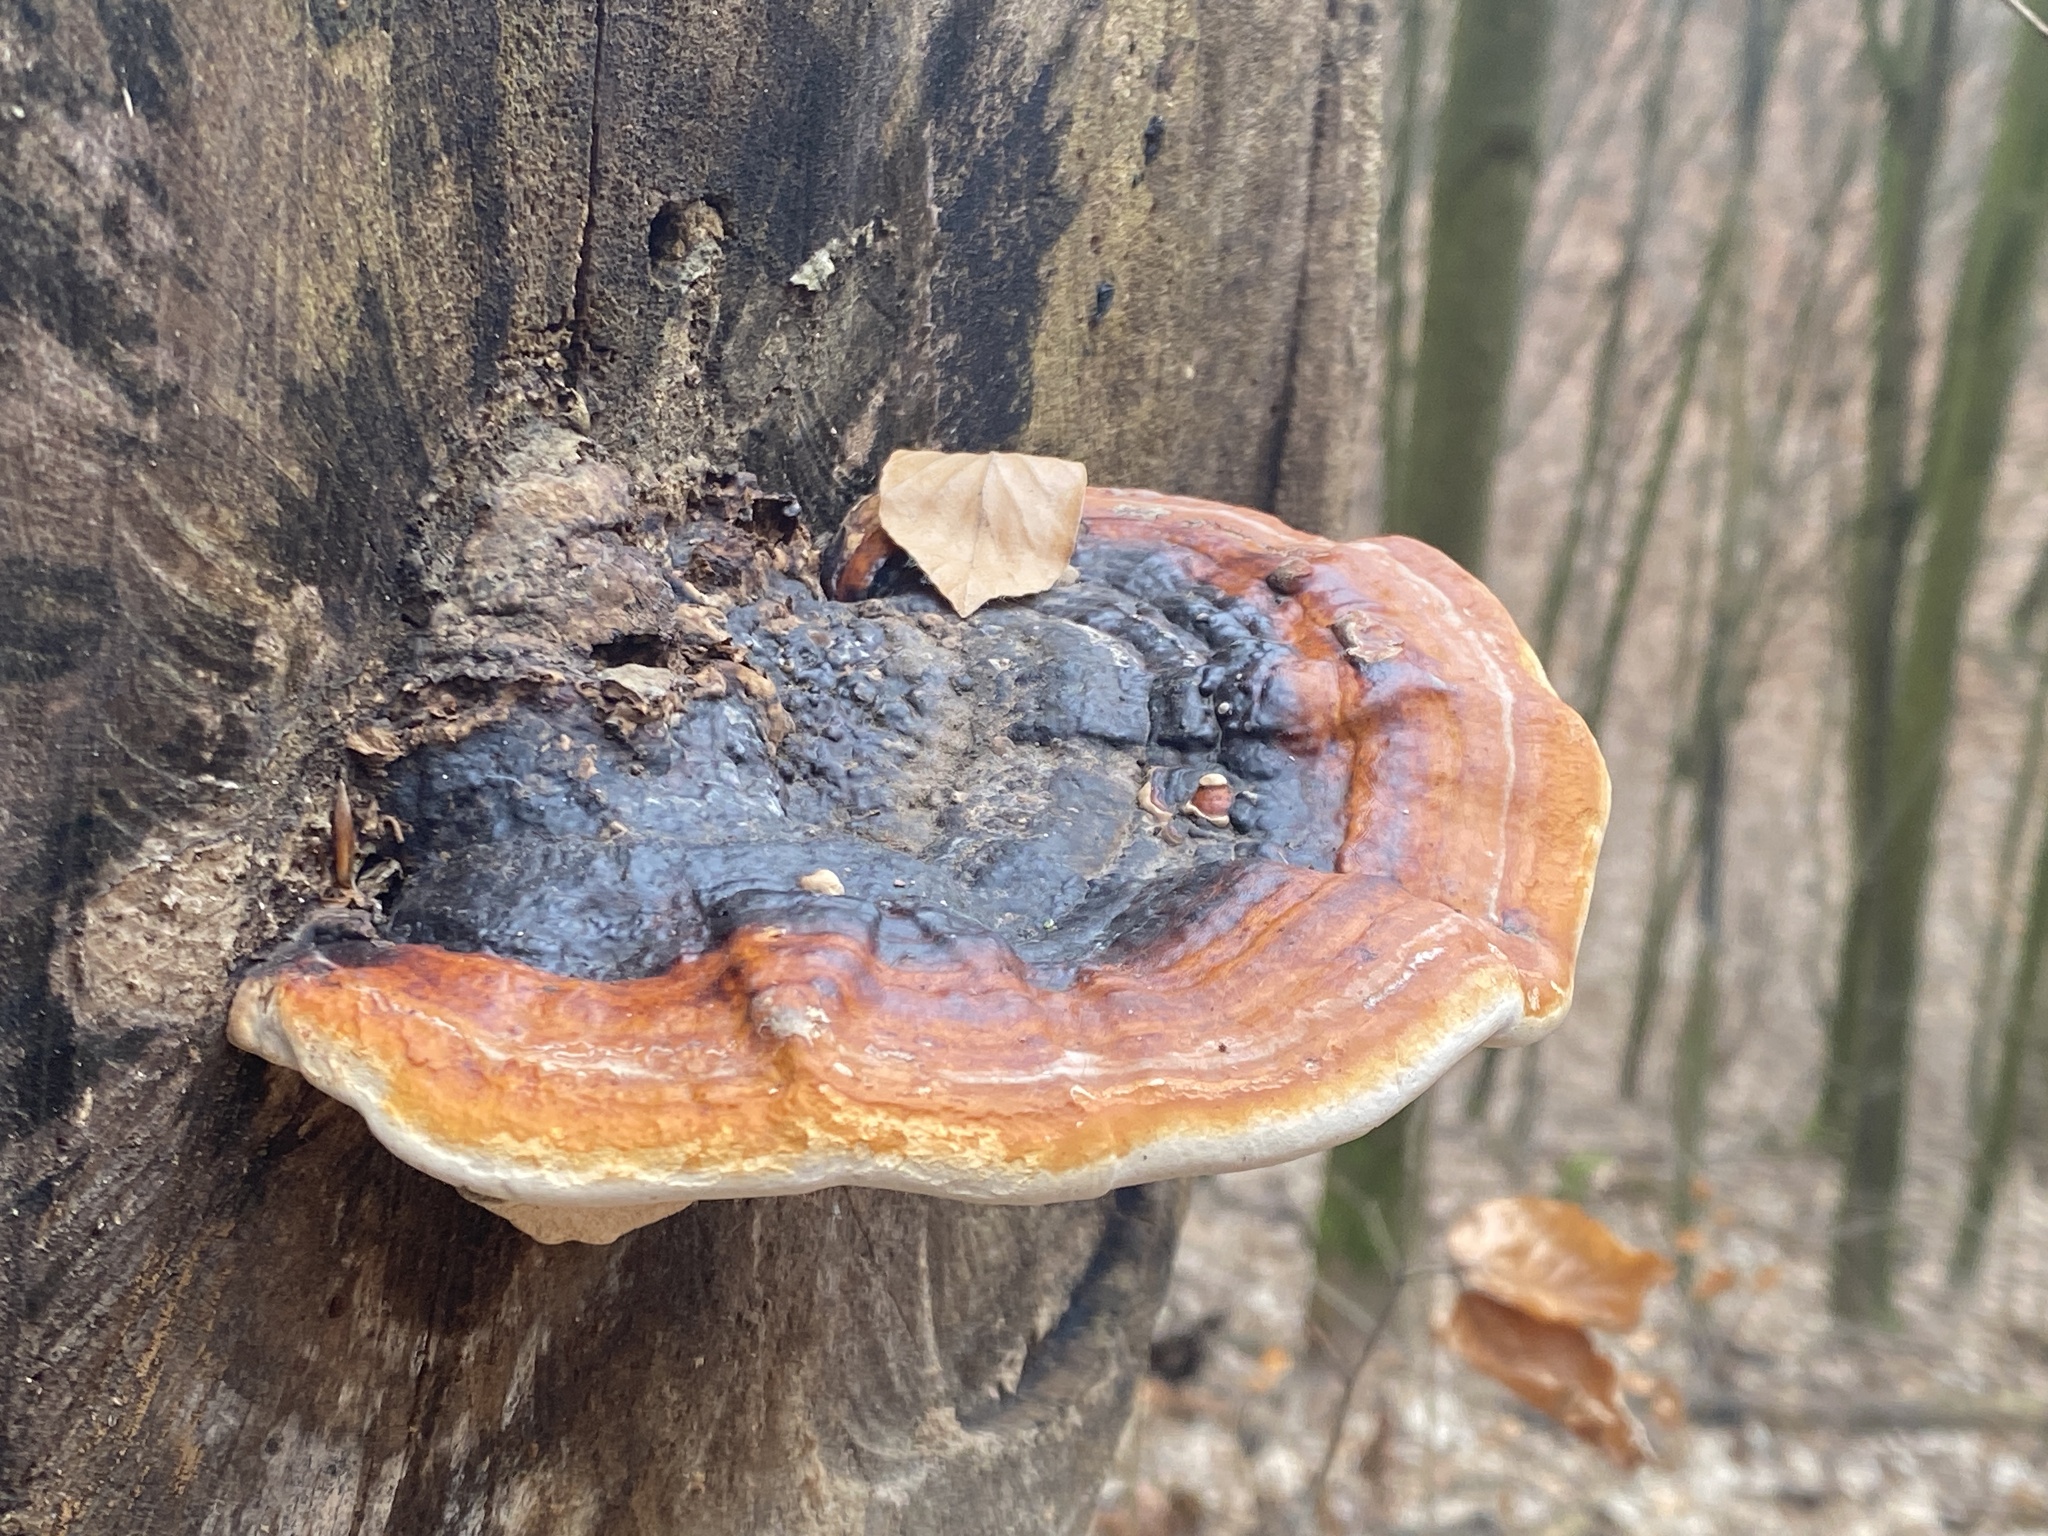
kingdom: Fungi
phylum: Basidiomycota
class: Agaricomycetes
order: Polyporales
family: Fomitopsidaceae
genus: Fomitopsis
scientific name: Fomitopsis pinicola
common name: Red-belted bracket
